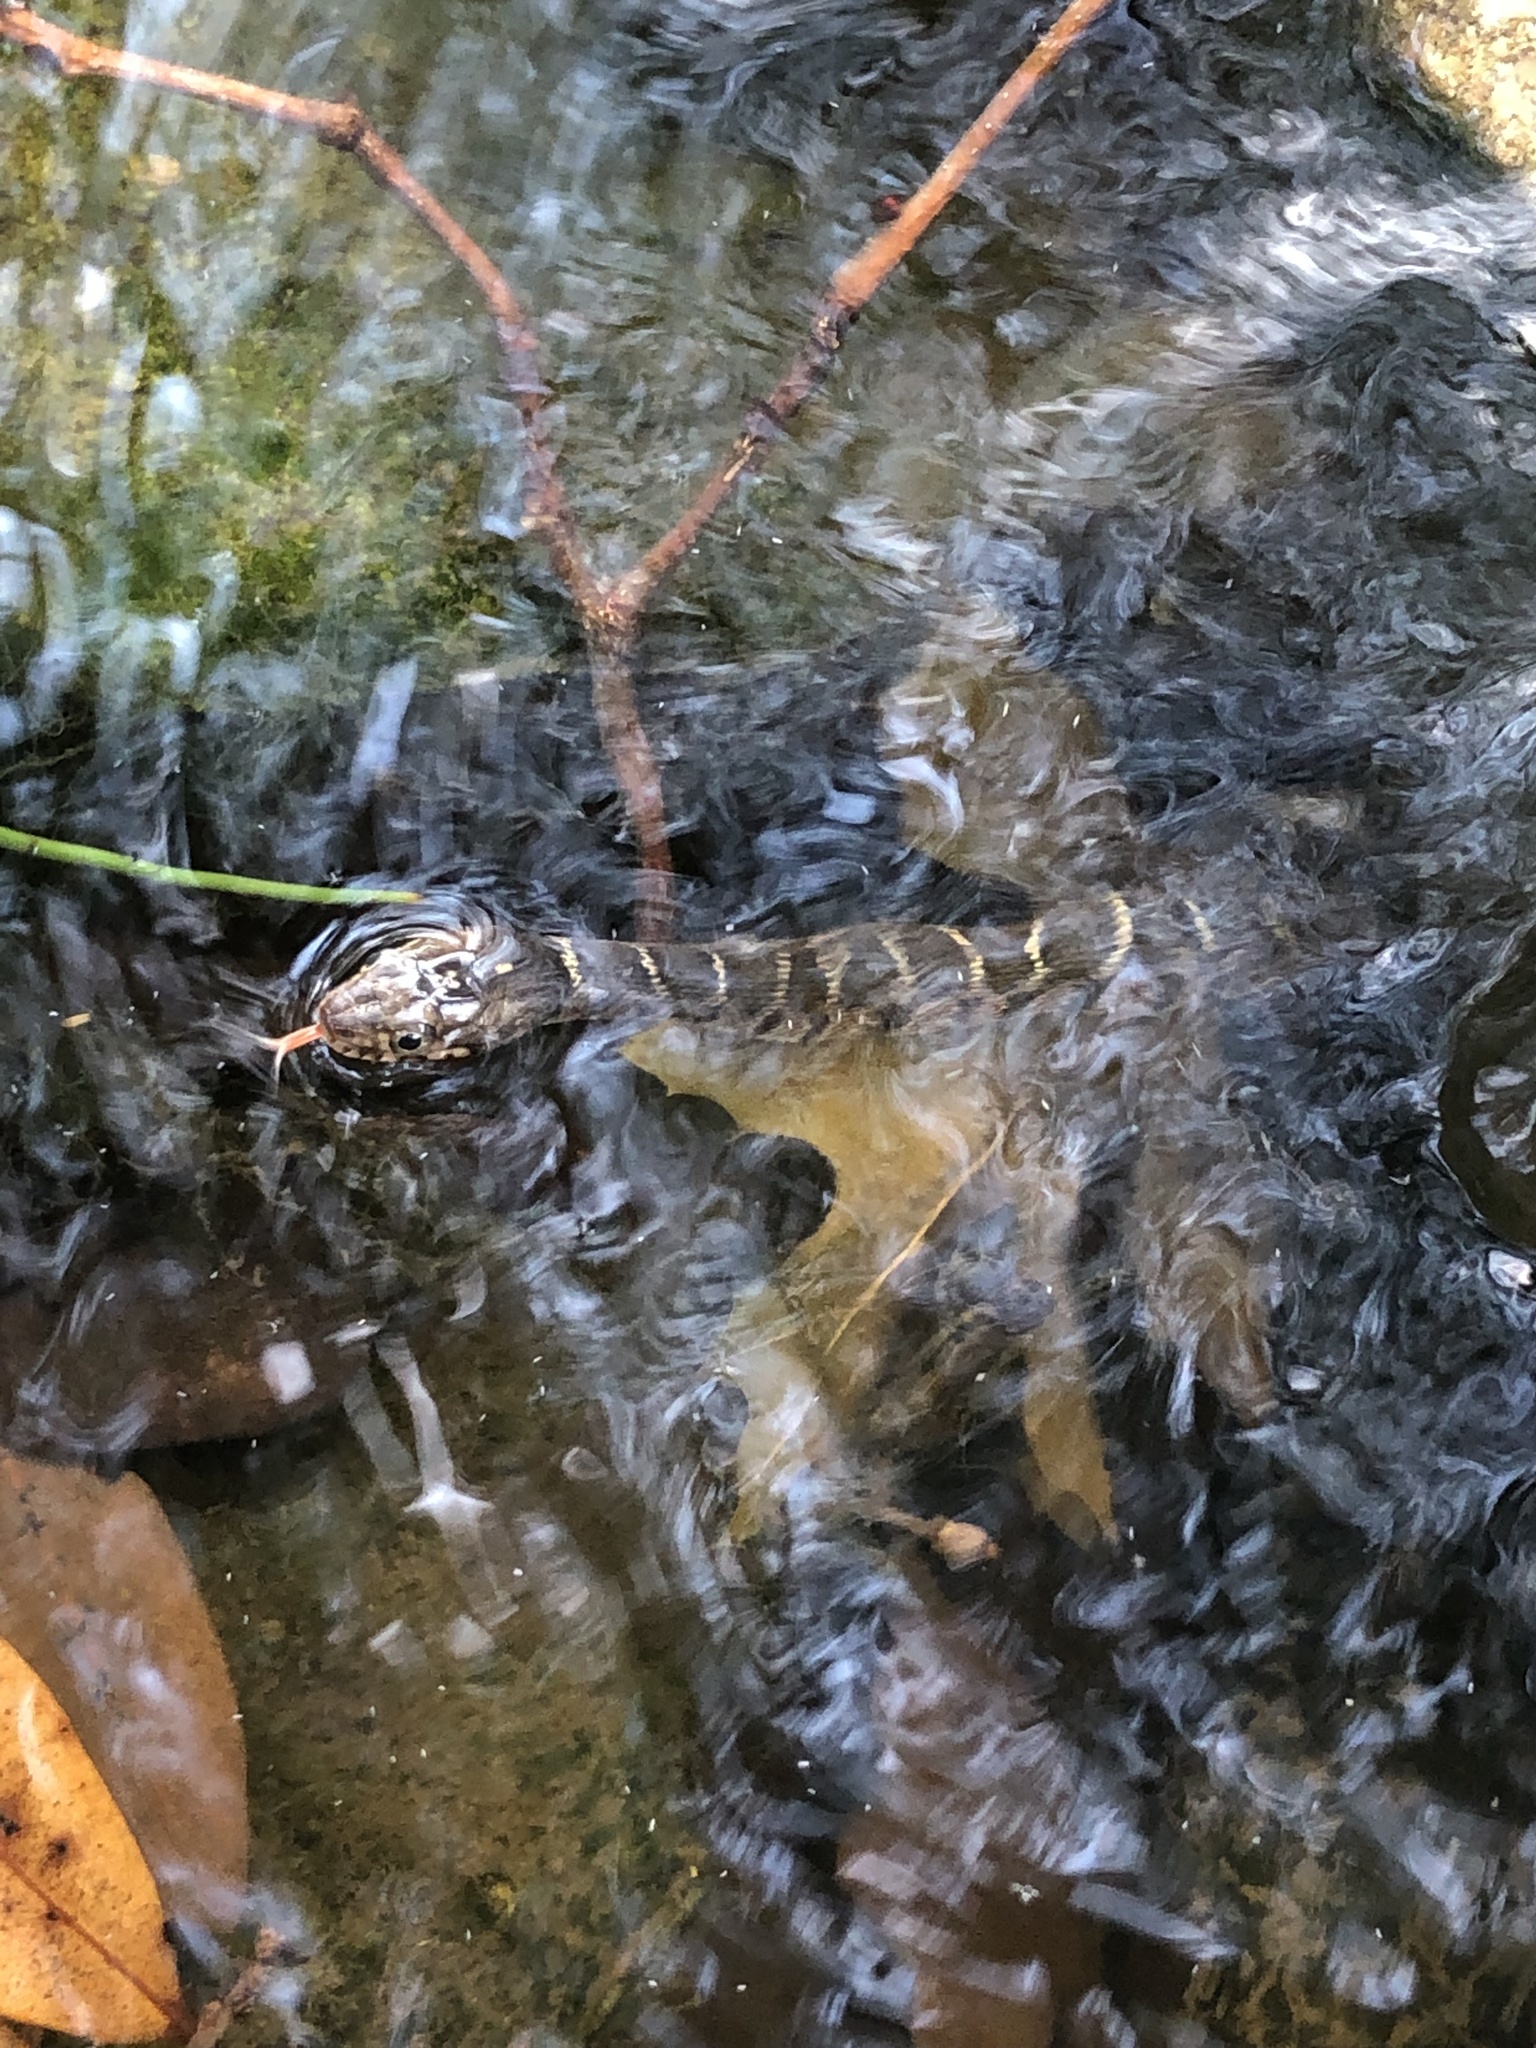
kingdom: Animalia
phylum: Chordata
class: Squamata
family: Colubridae
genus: Nerodia
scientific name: Nerodia erythrogaster
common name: Plainbelly water snake
